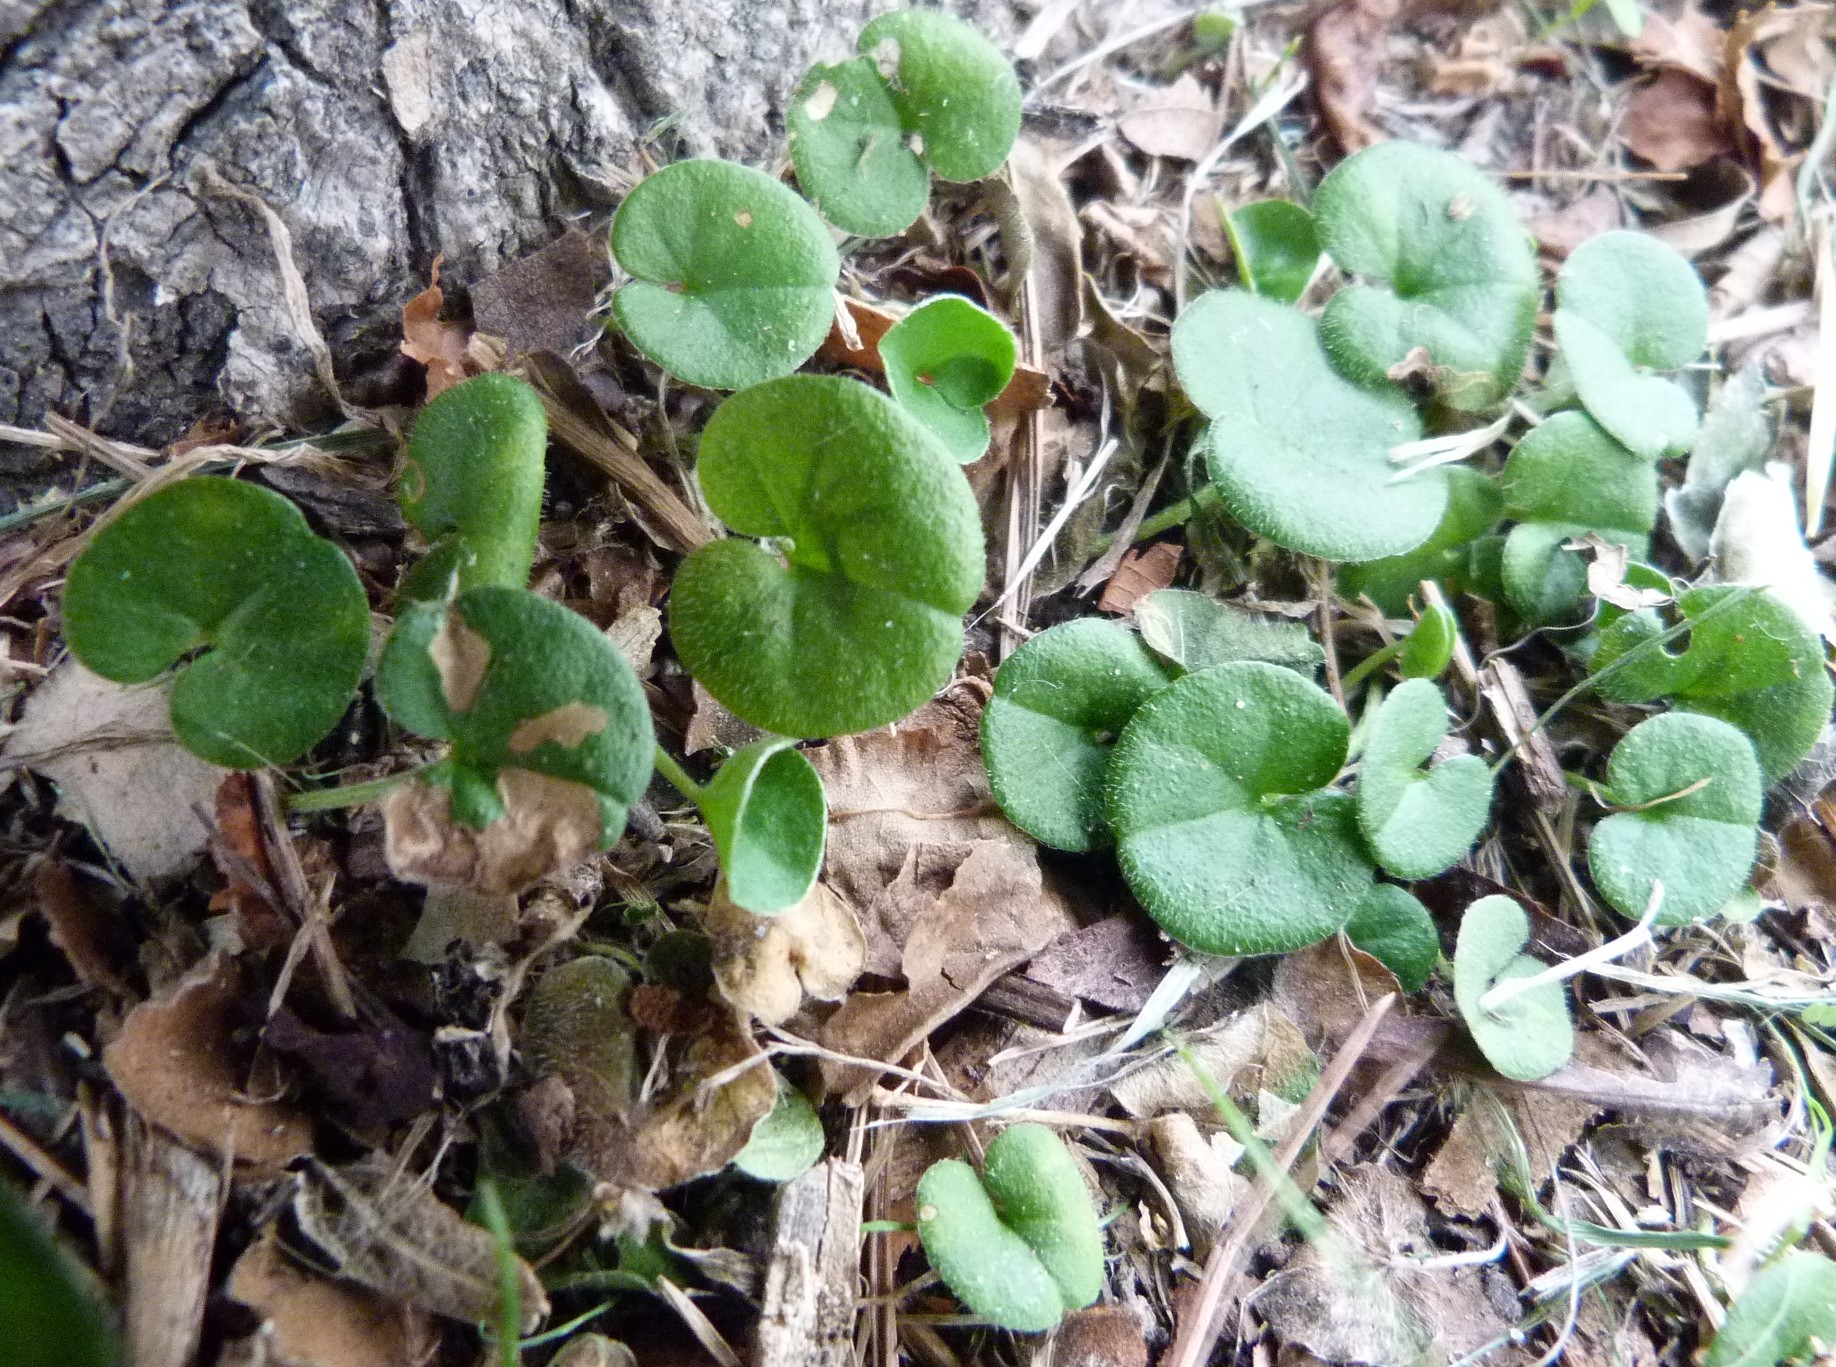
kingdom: Plantae
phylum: Tracheophyta
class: Magnoliopsida
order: Solanales
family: Convolvulaceae
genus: Dichondra
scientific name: Dichondra repens
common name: Kidneyweed
